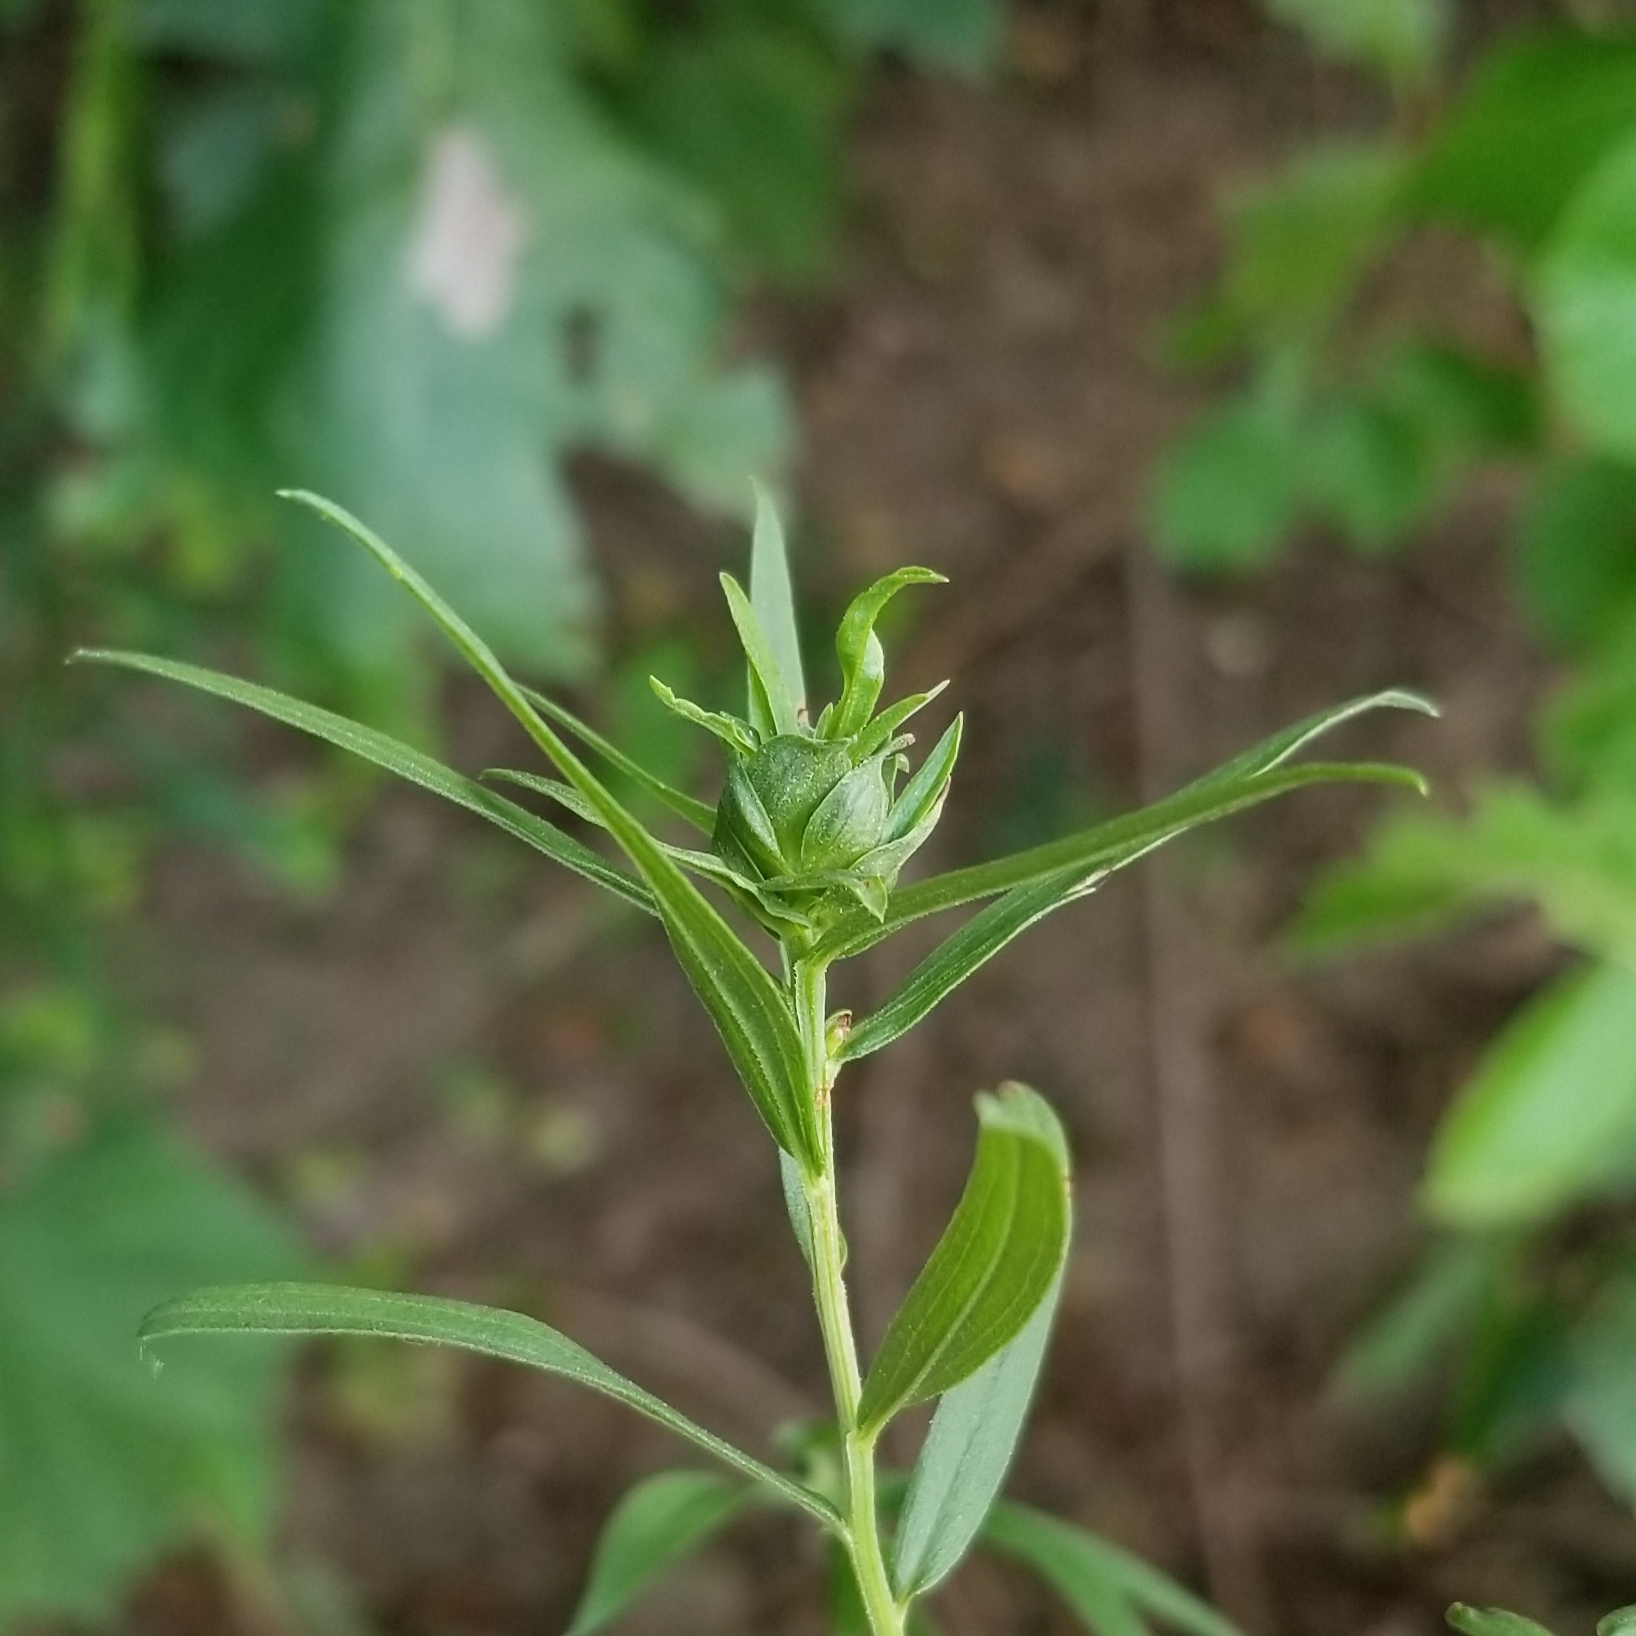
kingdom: Animalia
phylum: Arthropoda
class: Insecta
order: Diptera
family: Cecidomyiidae
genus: Asphondylia
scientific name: Asphondylia pseudorosa
